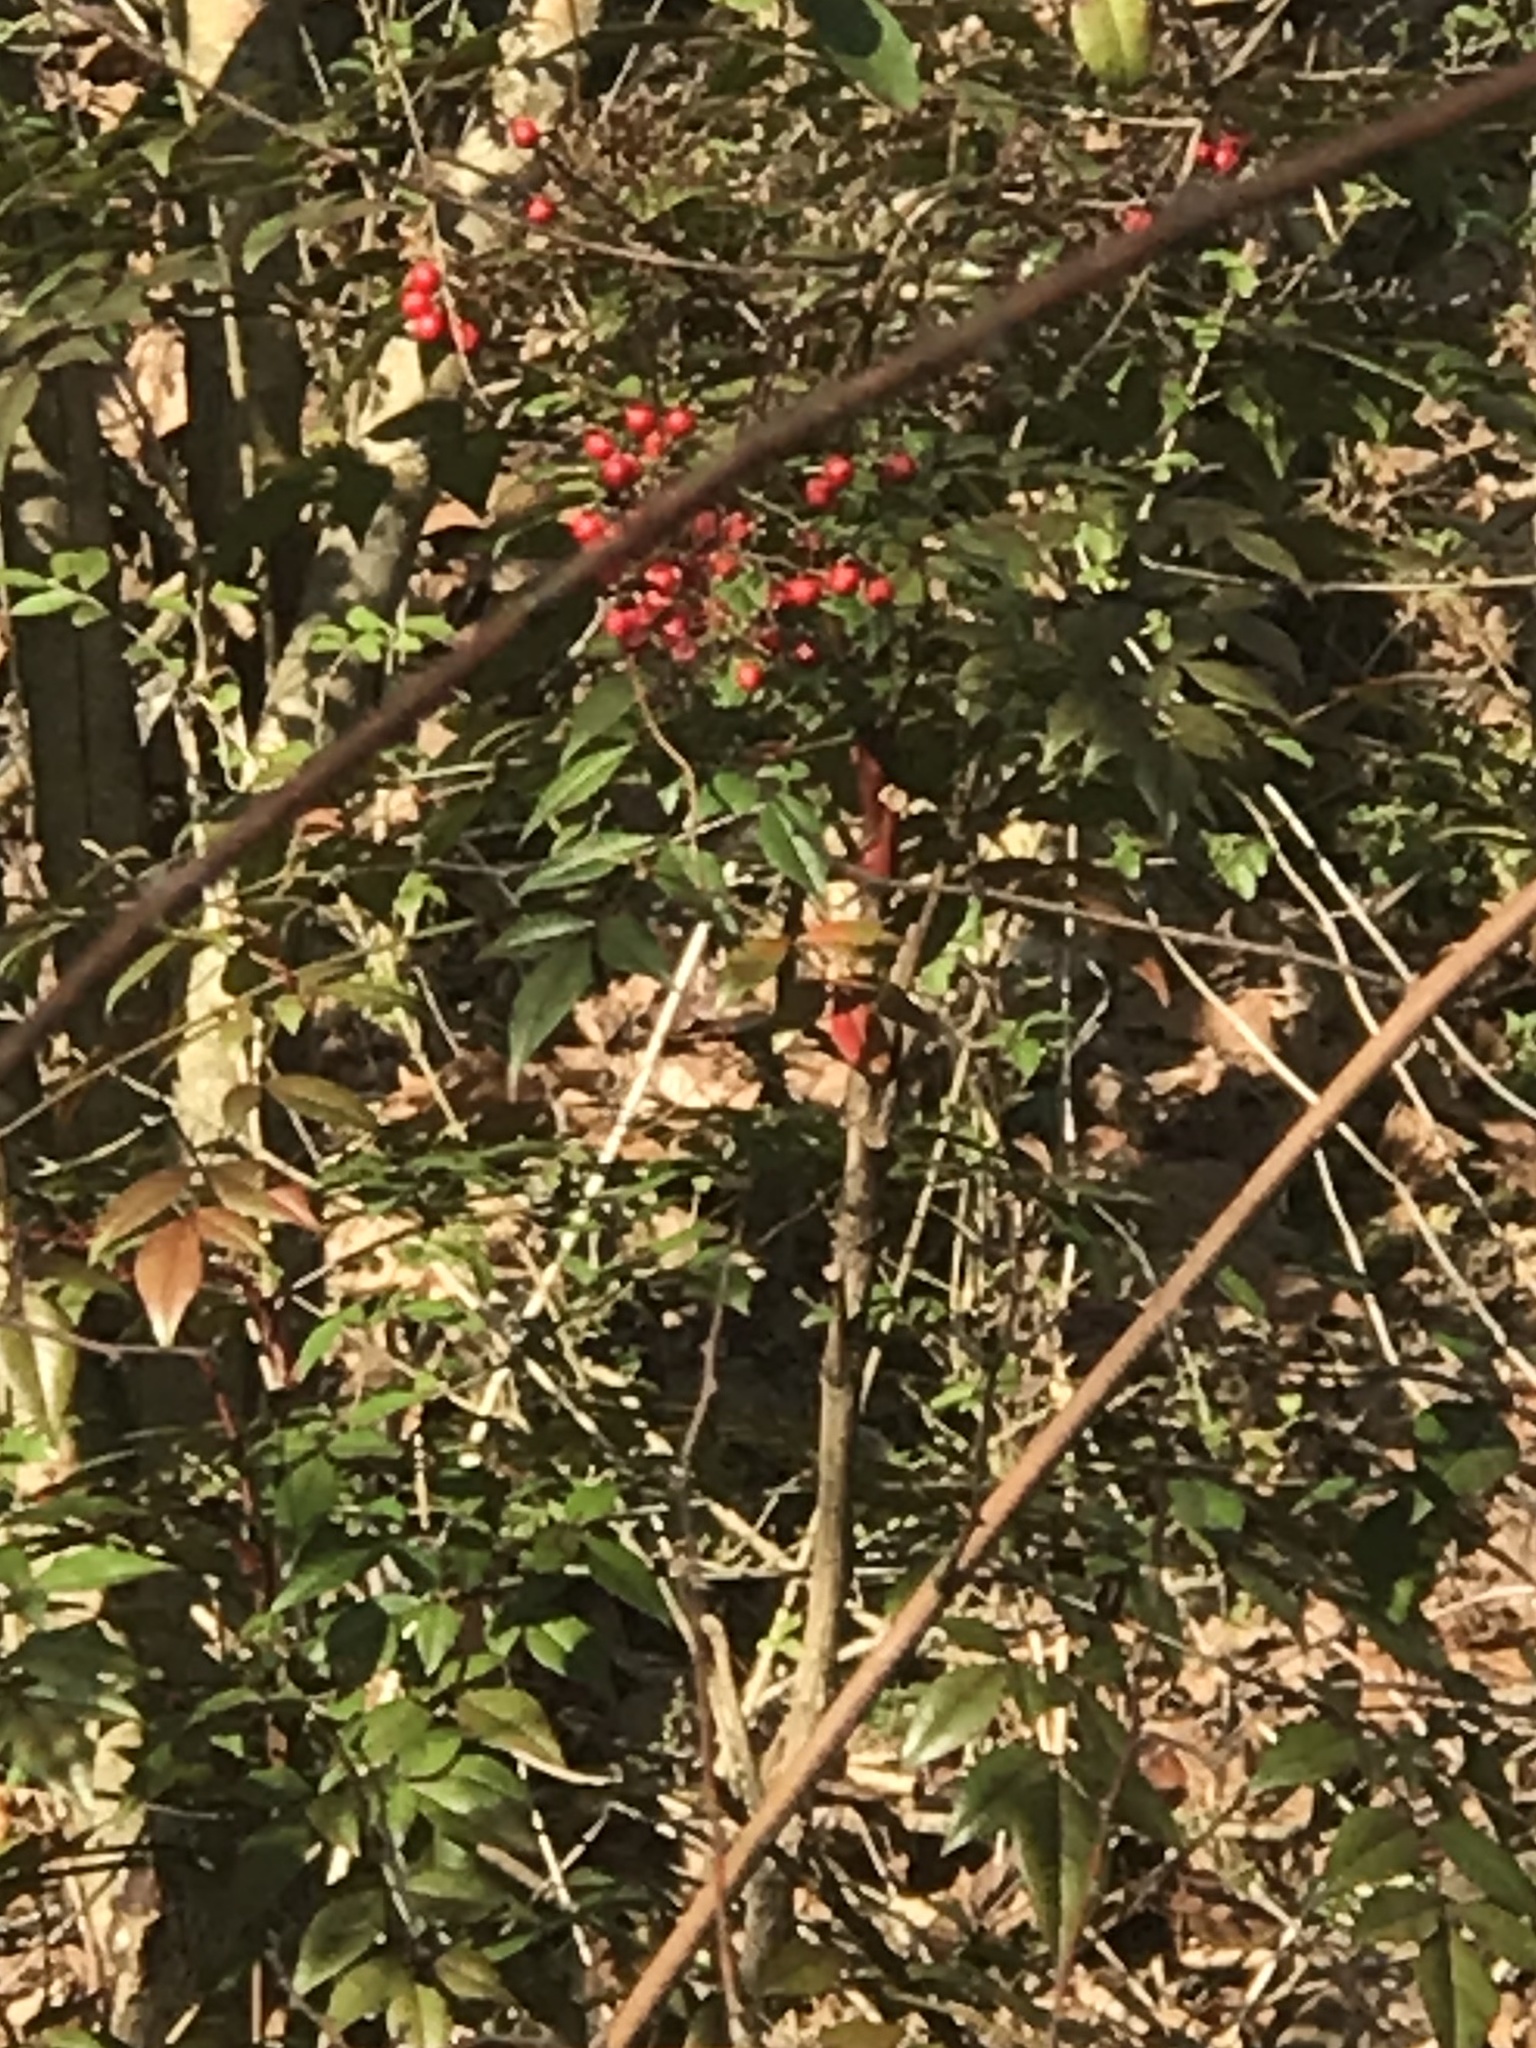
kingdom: Plantae
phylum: Tracheophyta
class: Magnoliopsida
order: Ranunculales
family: Berberidaceae
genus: Nandina
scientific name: Nandina domestica
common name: Sacred bamboo
